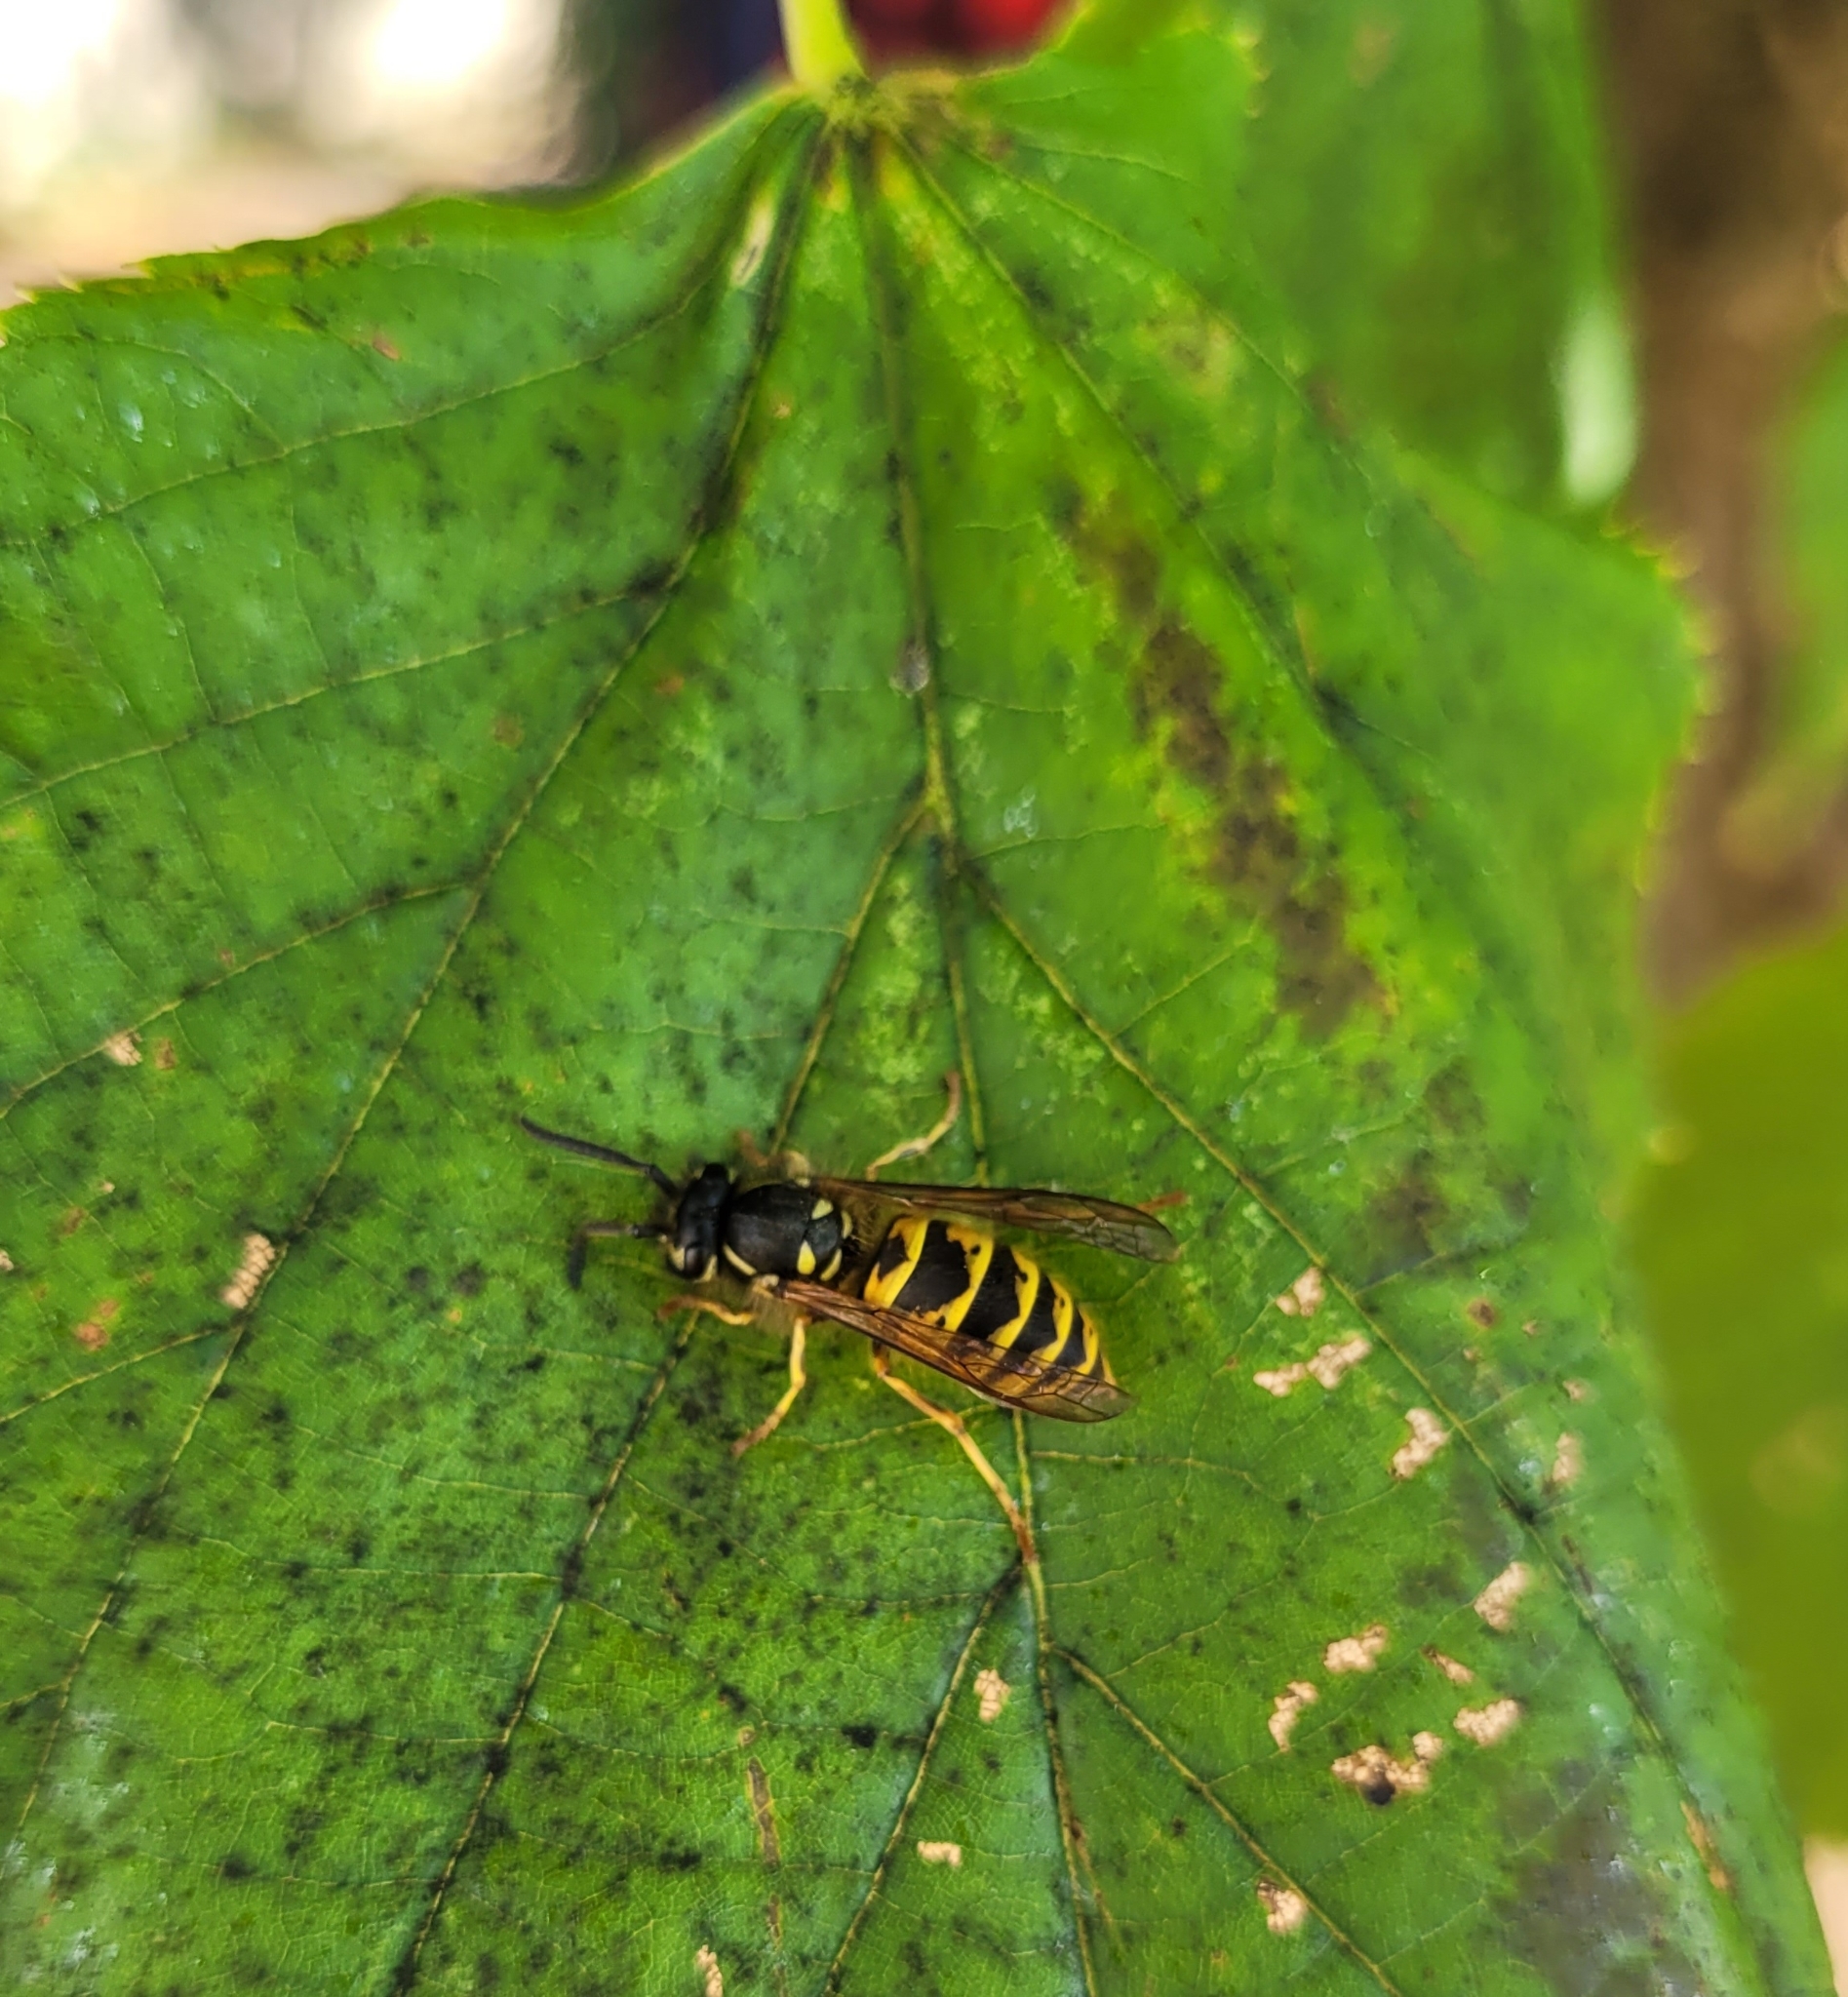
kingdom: Animalia
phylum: Arthropoda
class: Insecta
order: Hymenoptera
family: Vespidae
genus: Vespula
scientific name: Vespula vulgaris
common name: Common wasp
